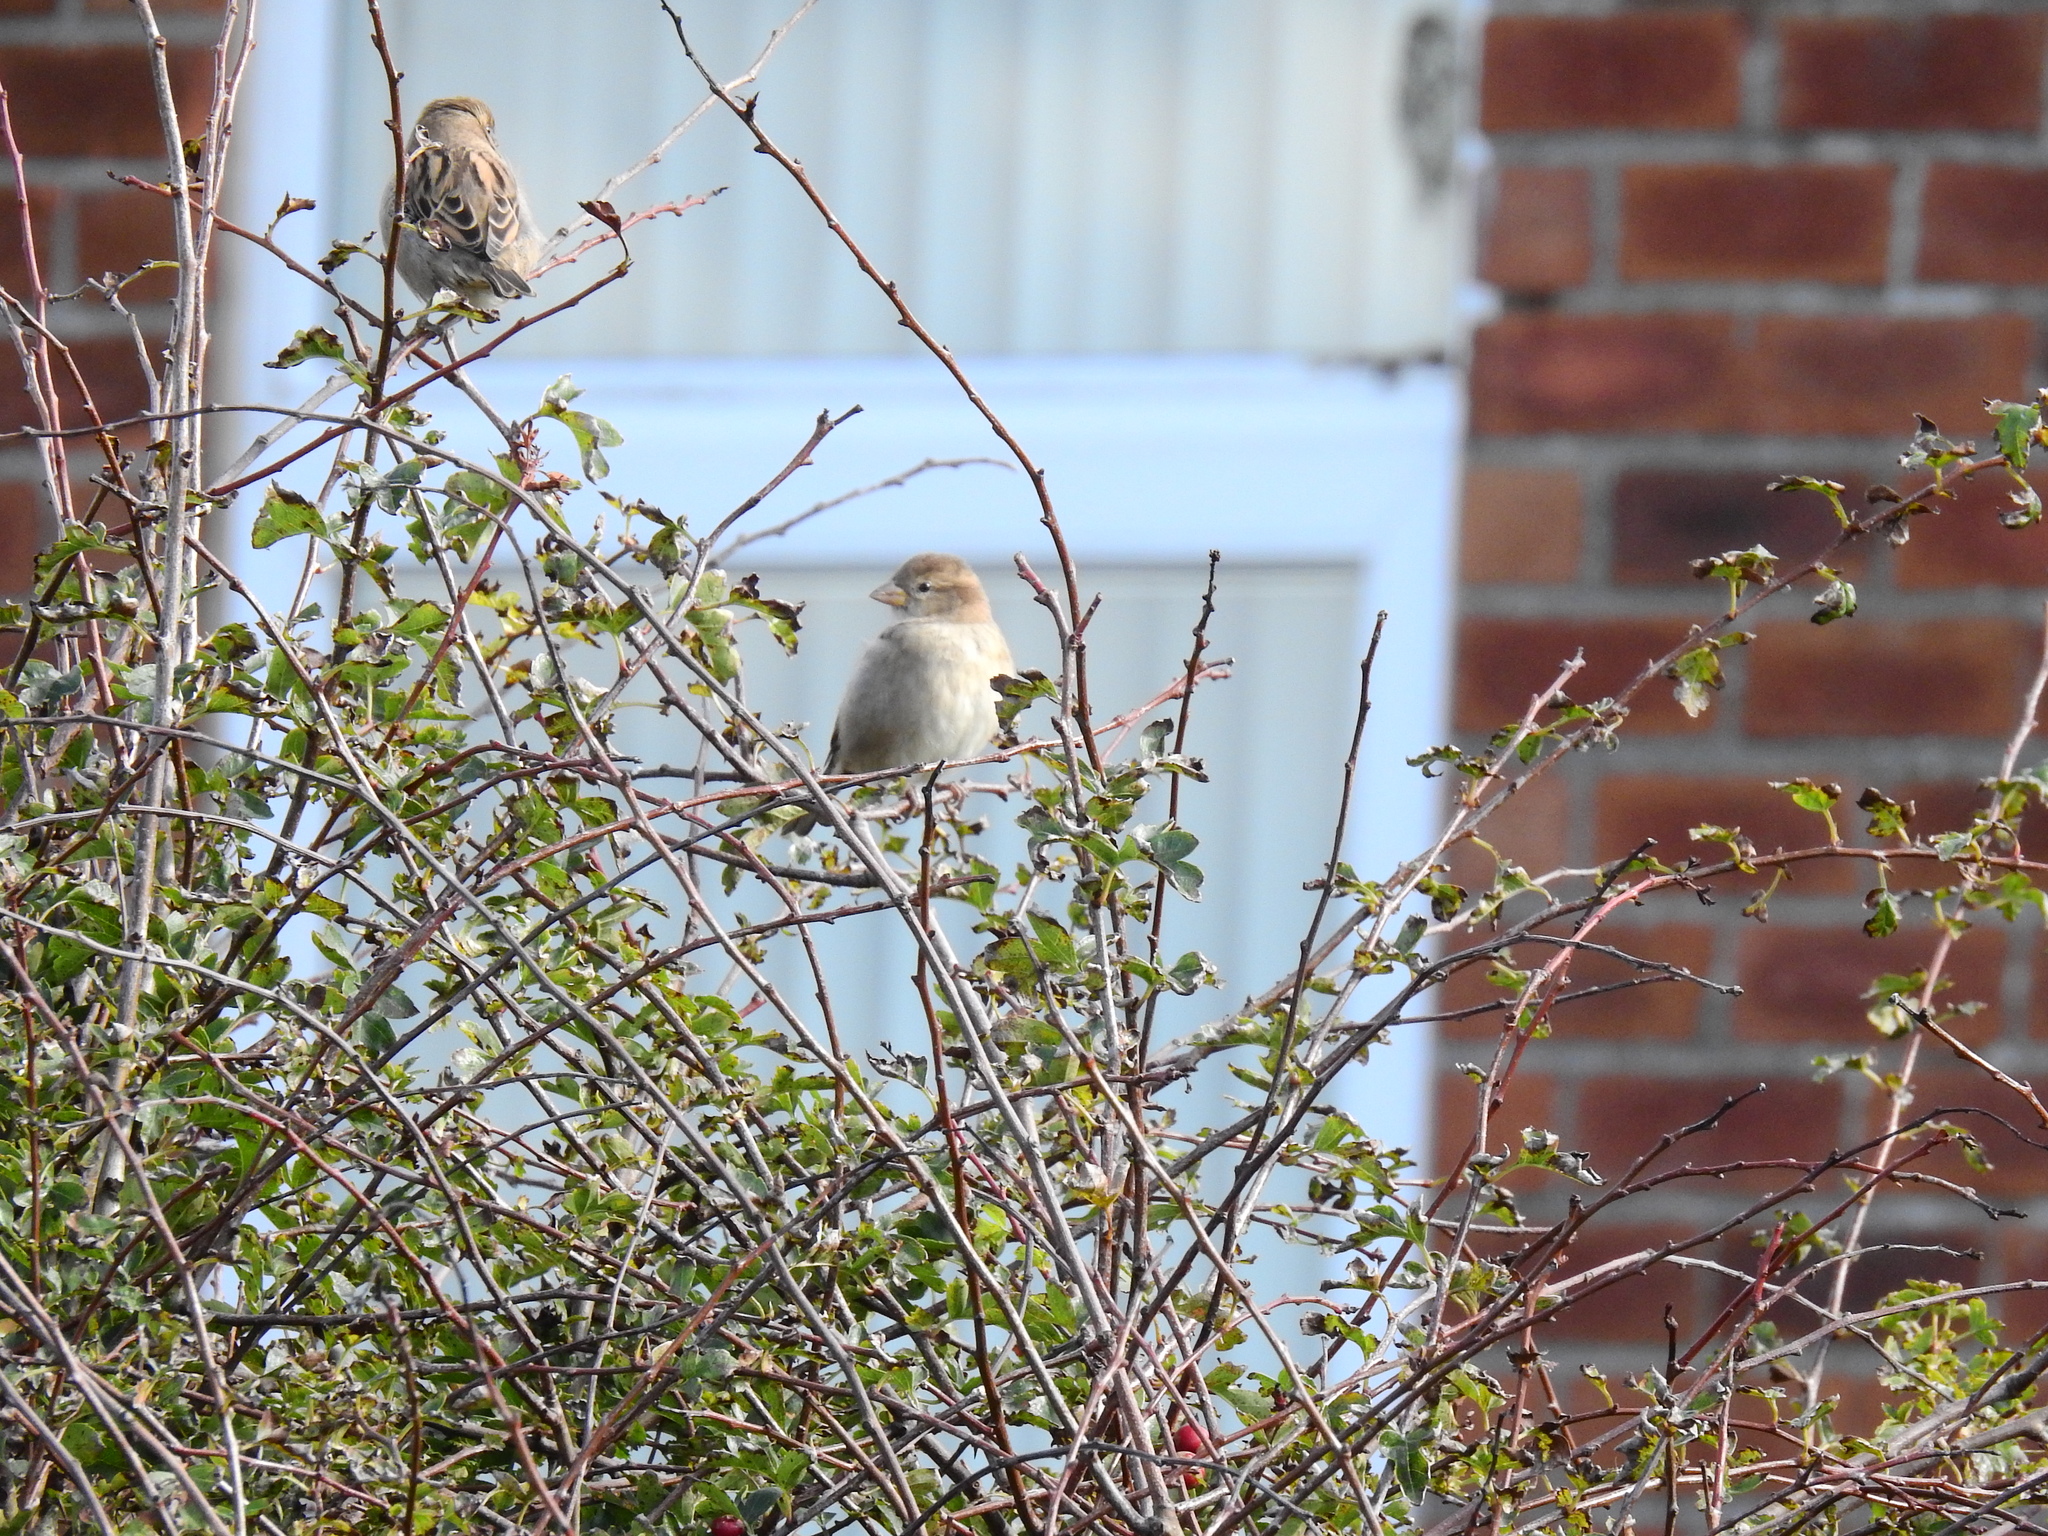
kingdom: Animalia
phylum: Chordata
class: Aves
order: Passeriformes
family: Passeridae
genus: Passer
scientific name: Passer domesticus
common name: House sparrow
